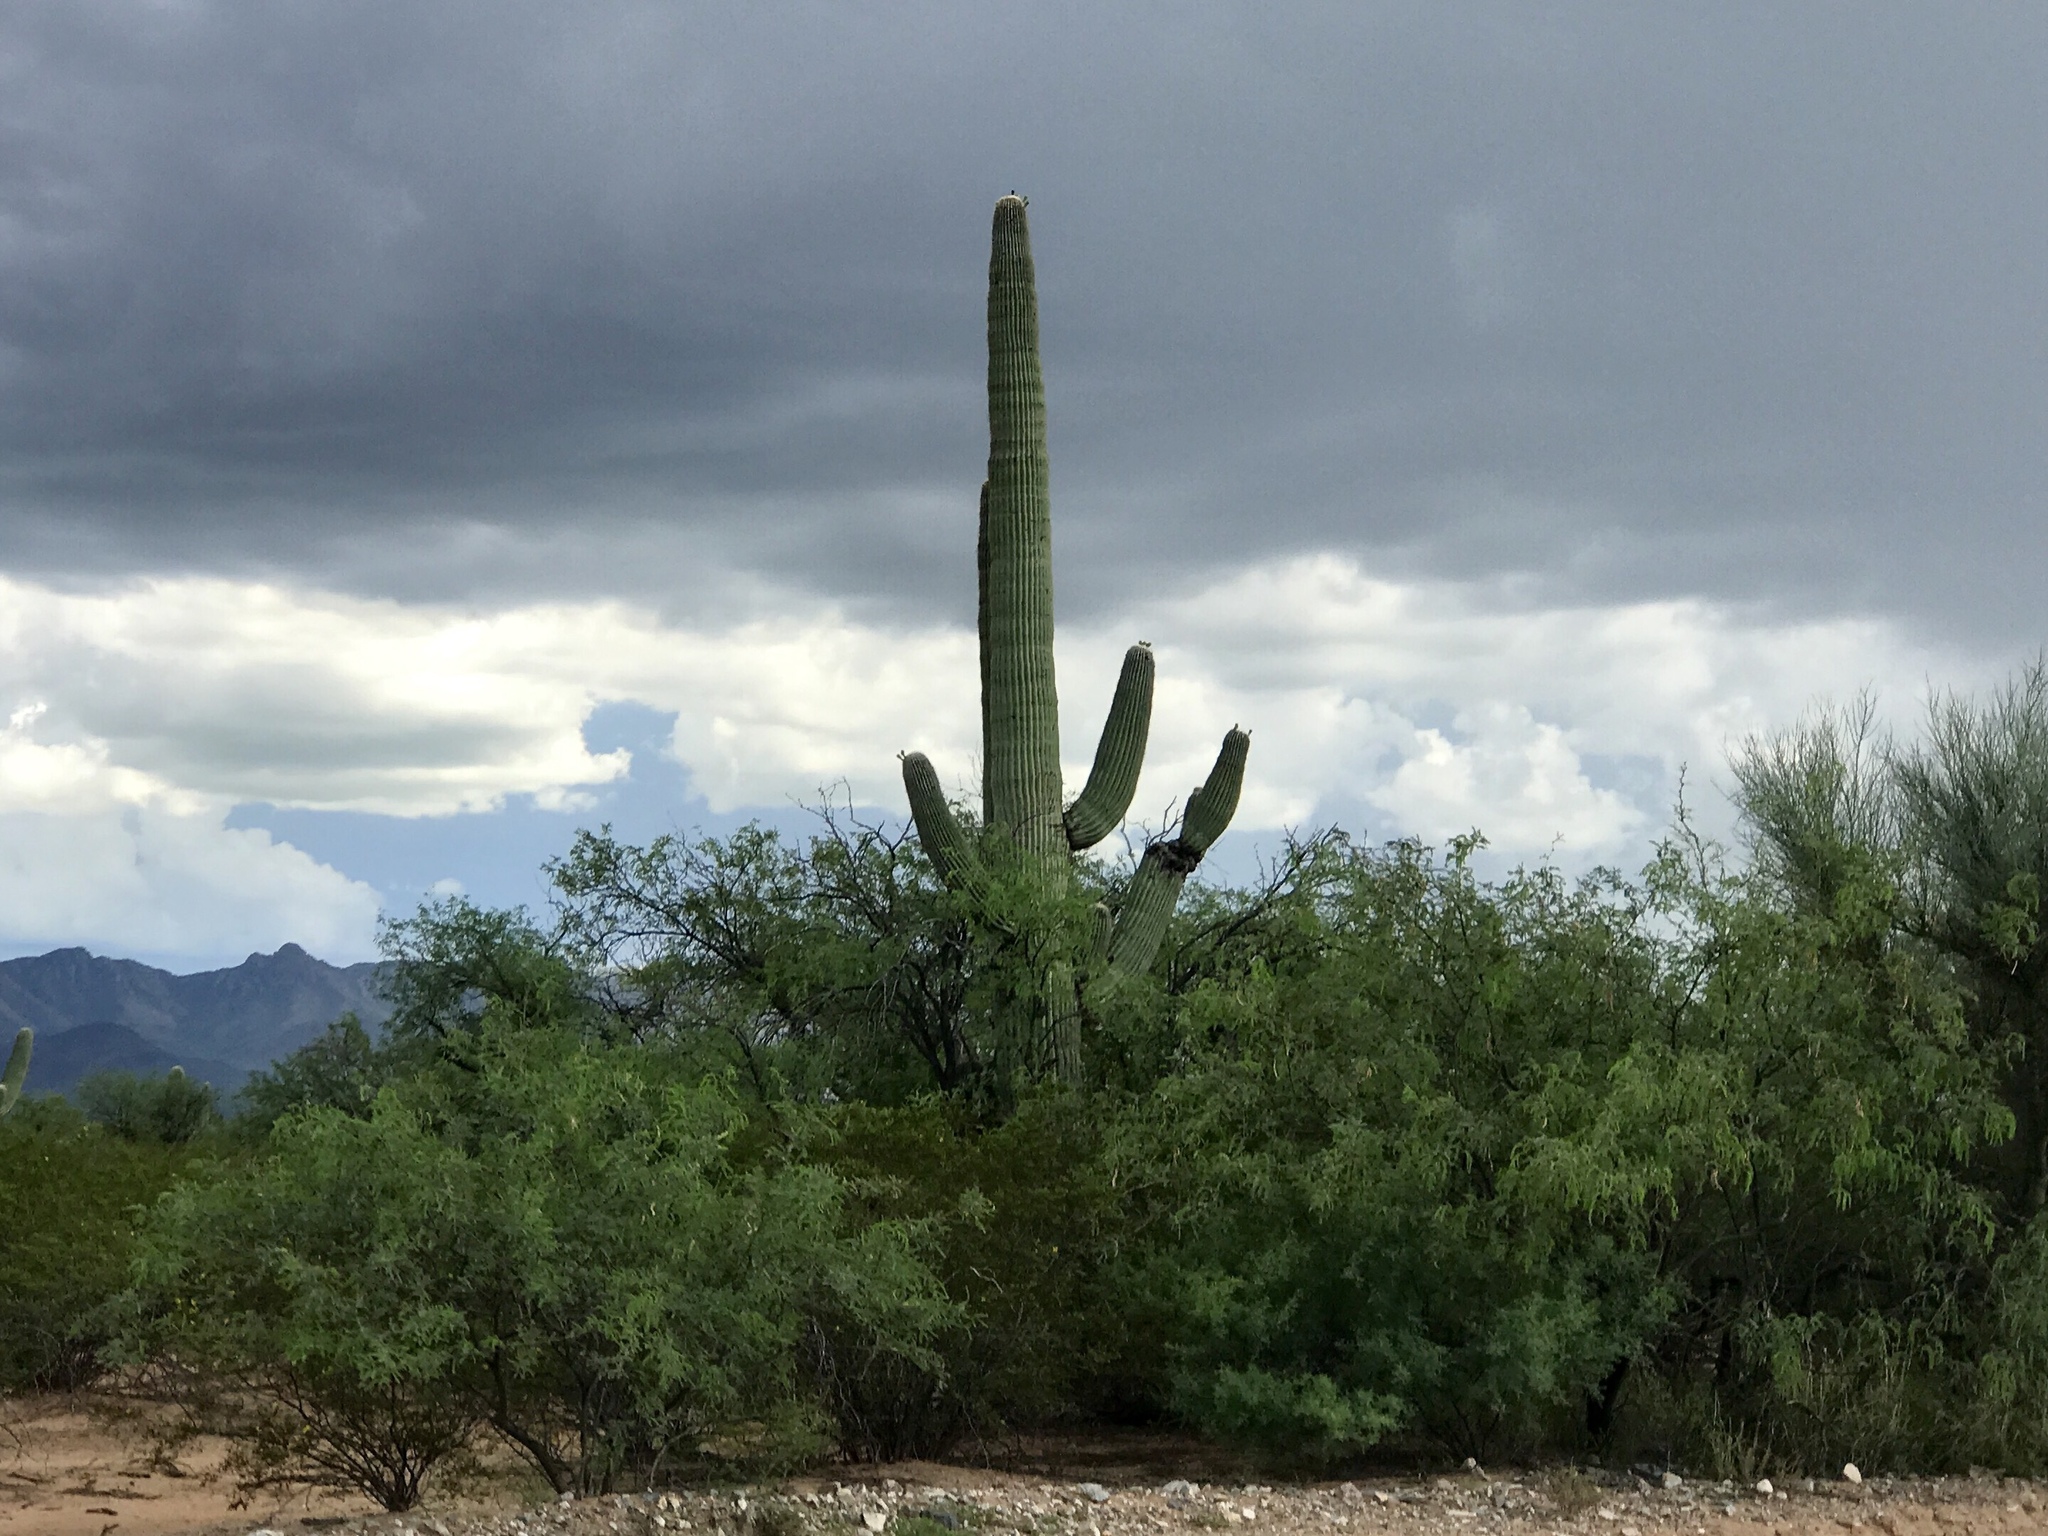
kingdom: Plantae
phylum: Tracheophyta
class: Magnoliopsida
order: Caryophyllales
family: Cactaceae
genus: Carnegiea
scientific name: Carnegiea gigantea
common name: Saguaro
